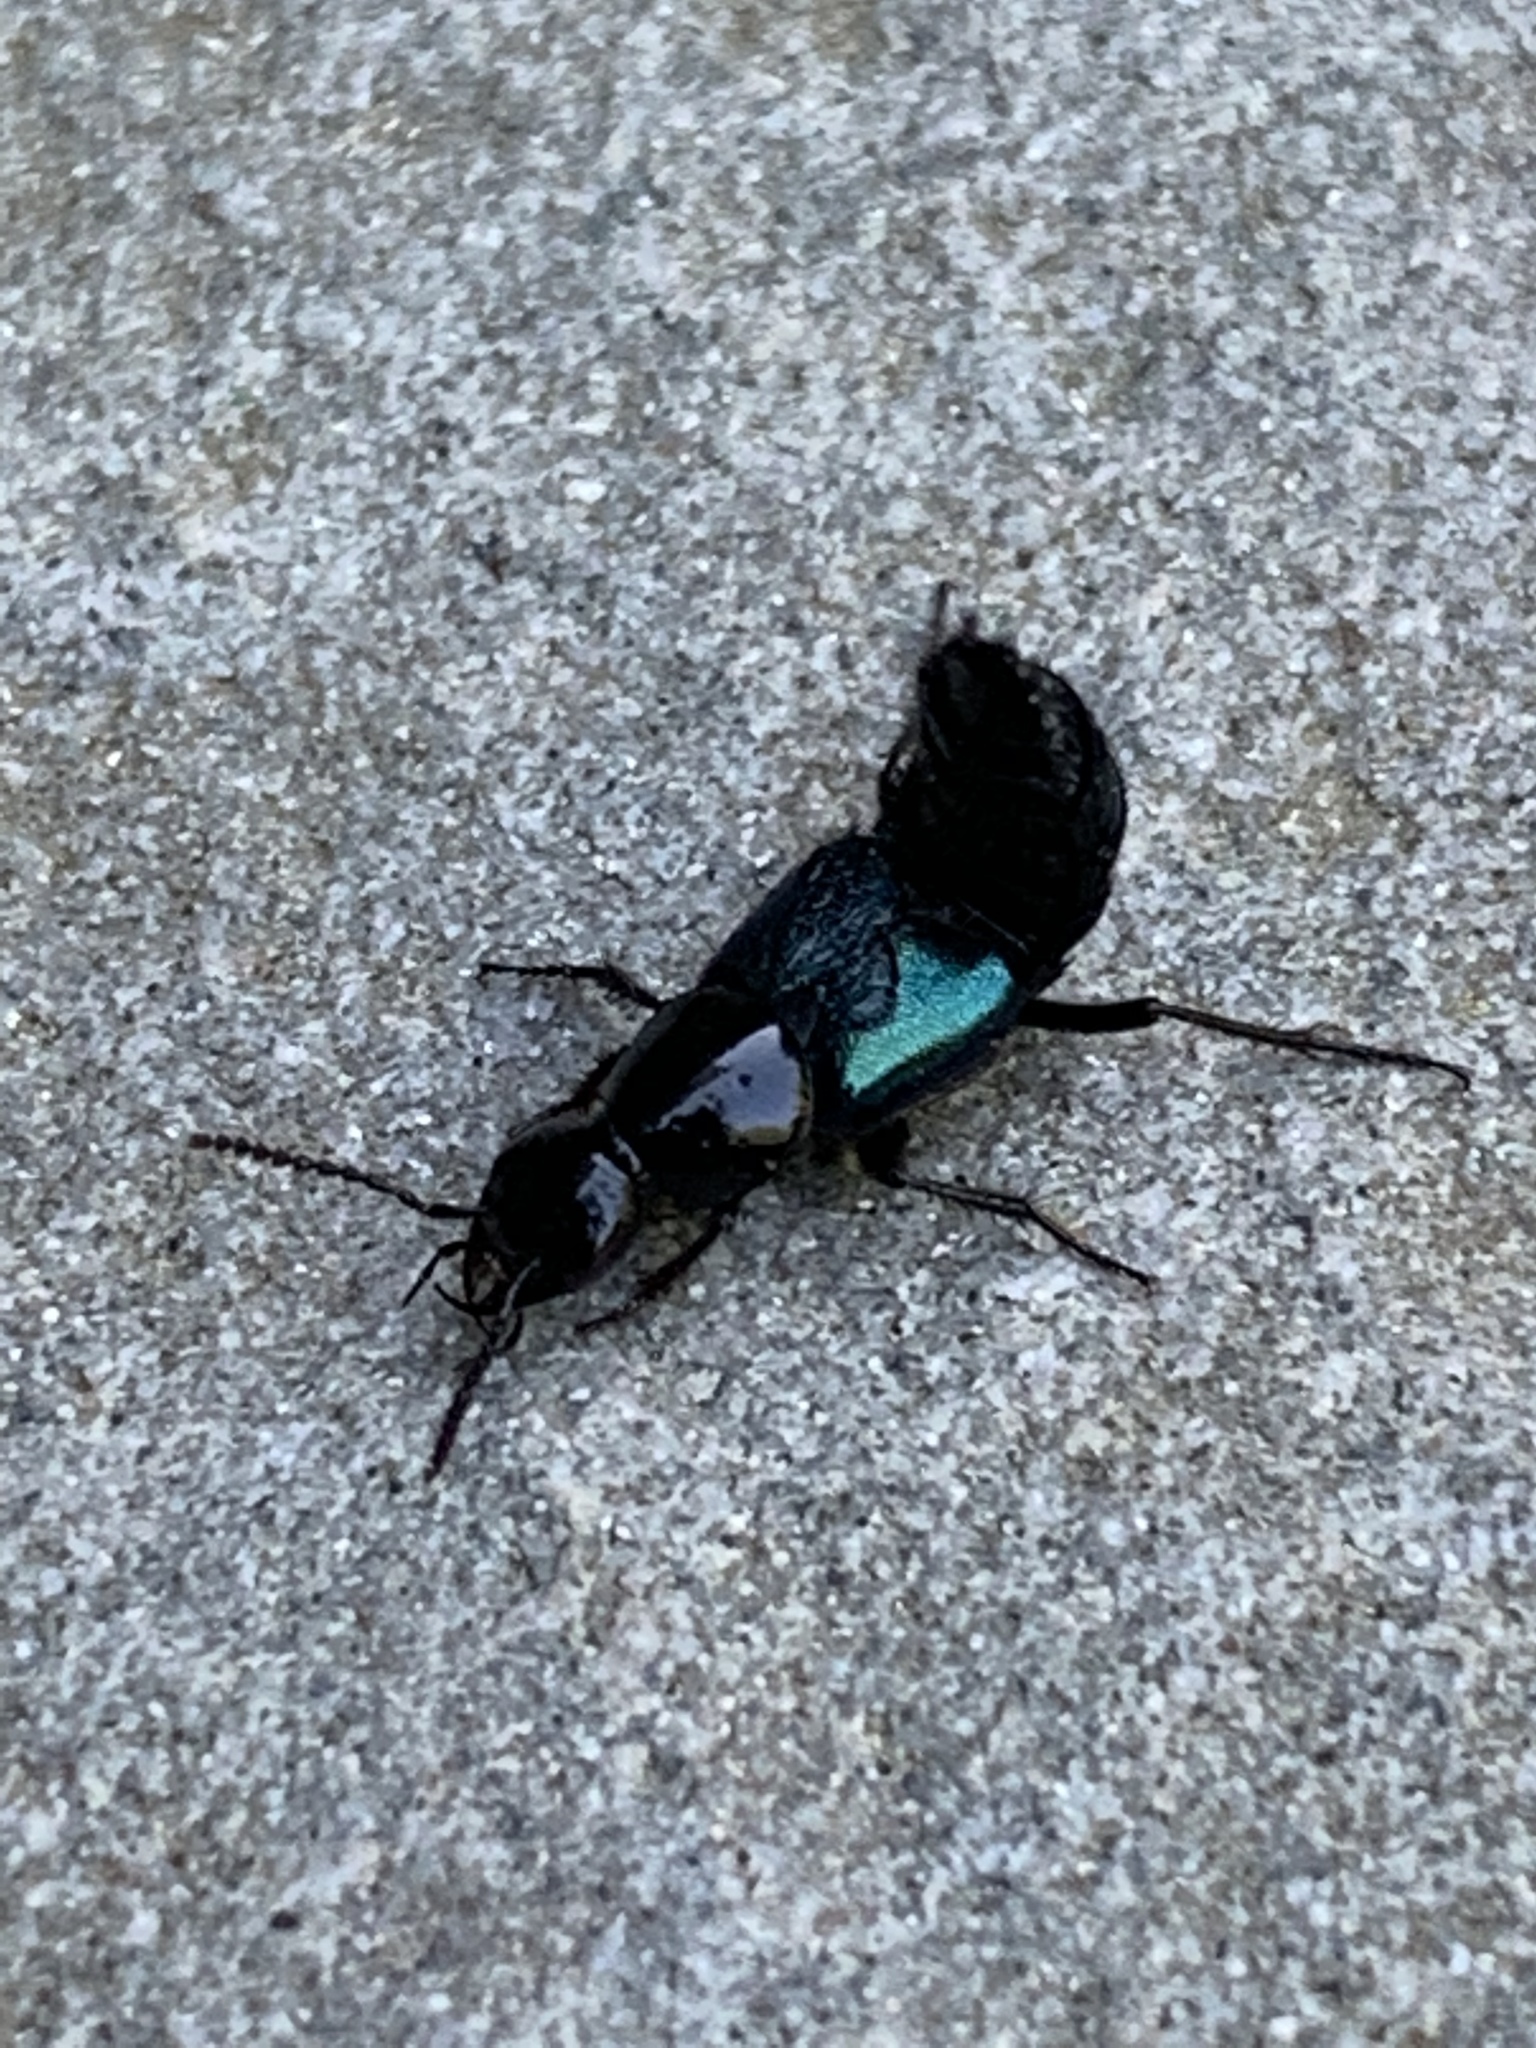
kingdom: Animalia
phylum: Arthropoda
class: Insecta
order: Coleoptera
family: Staphylinidae
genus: Philonthus
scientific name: Philonthus caeruleipennis
